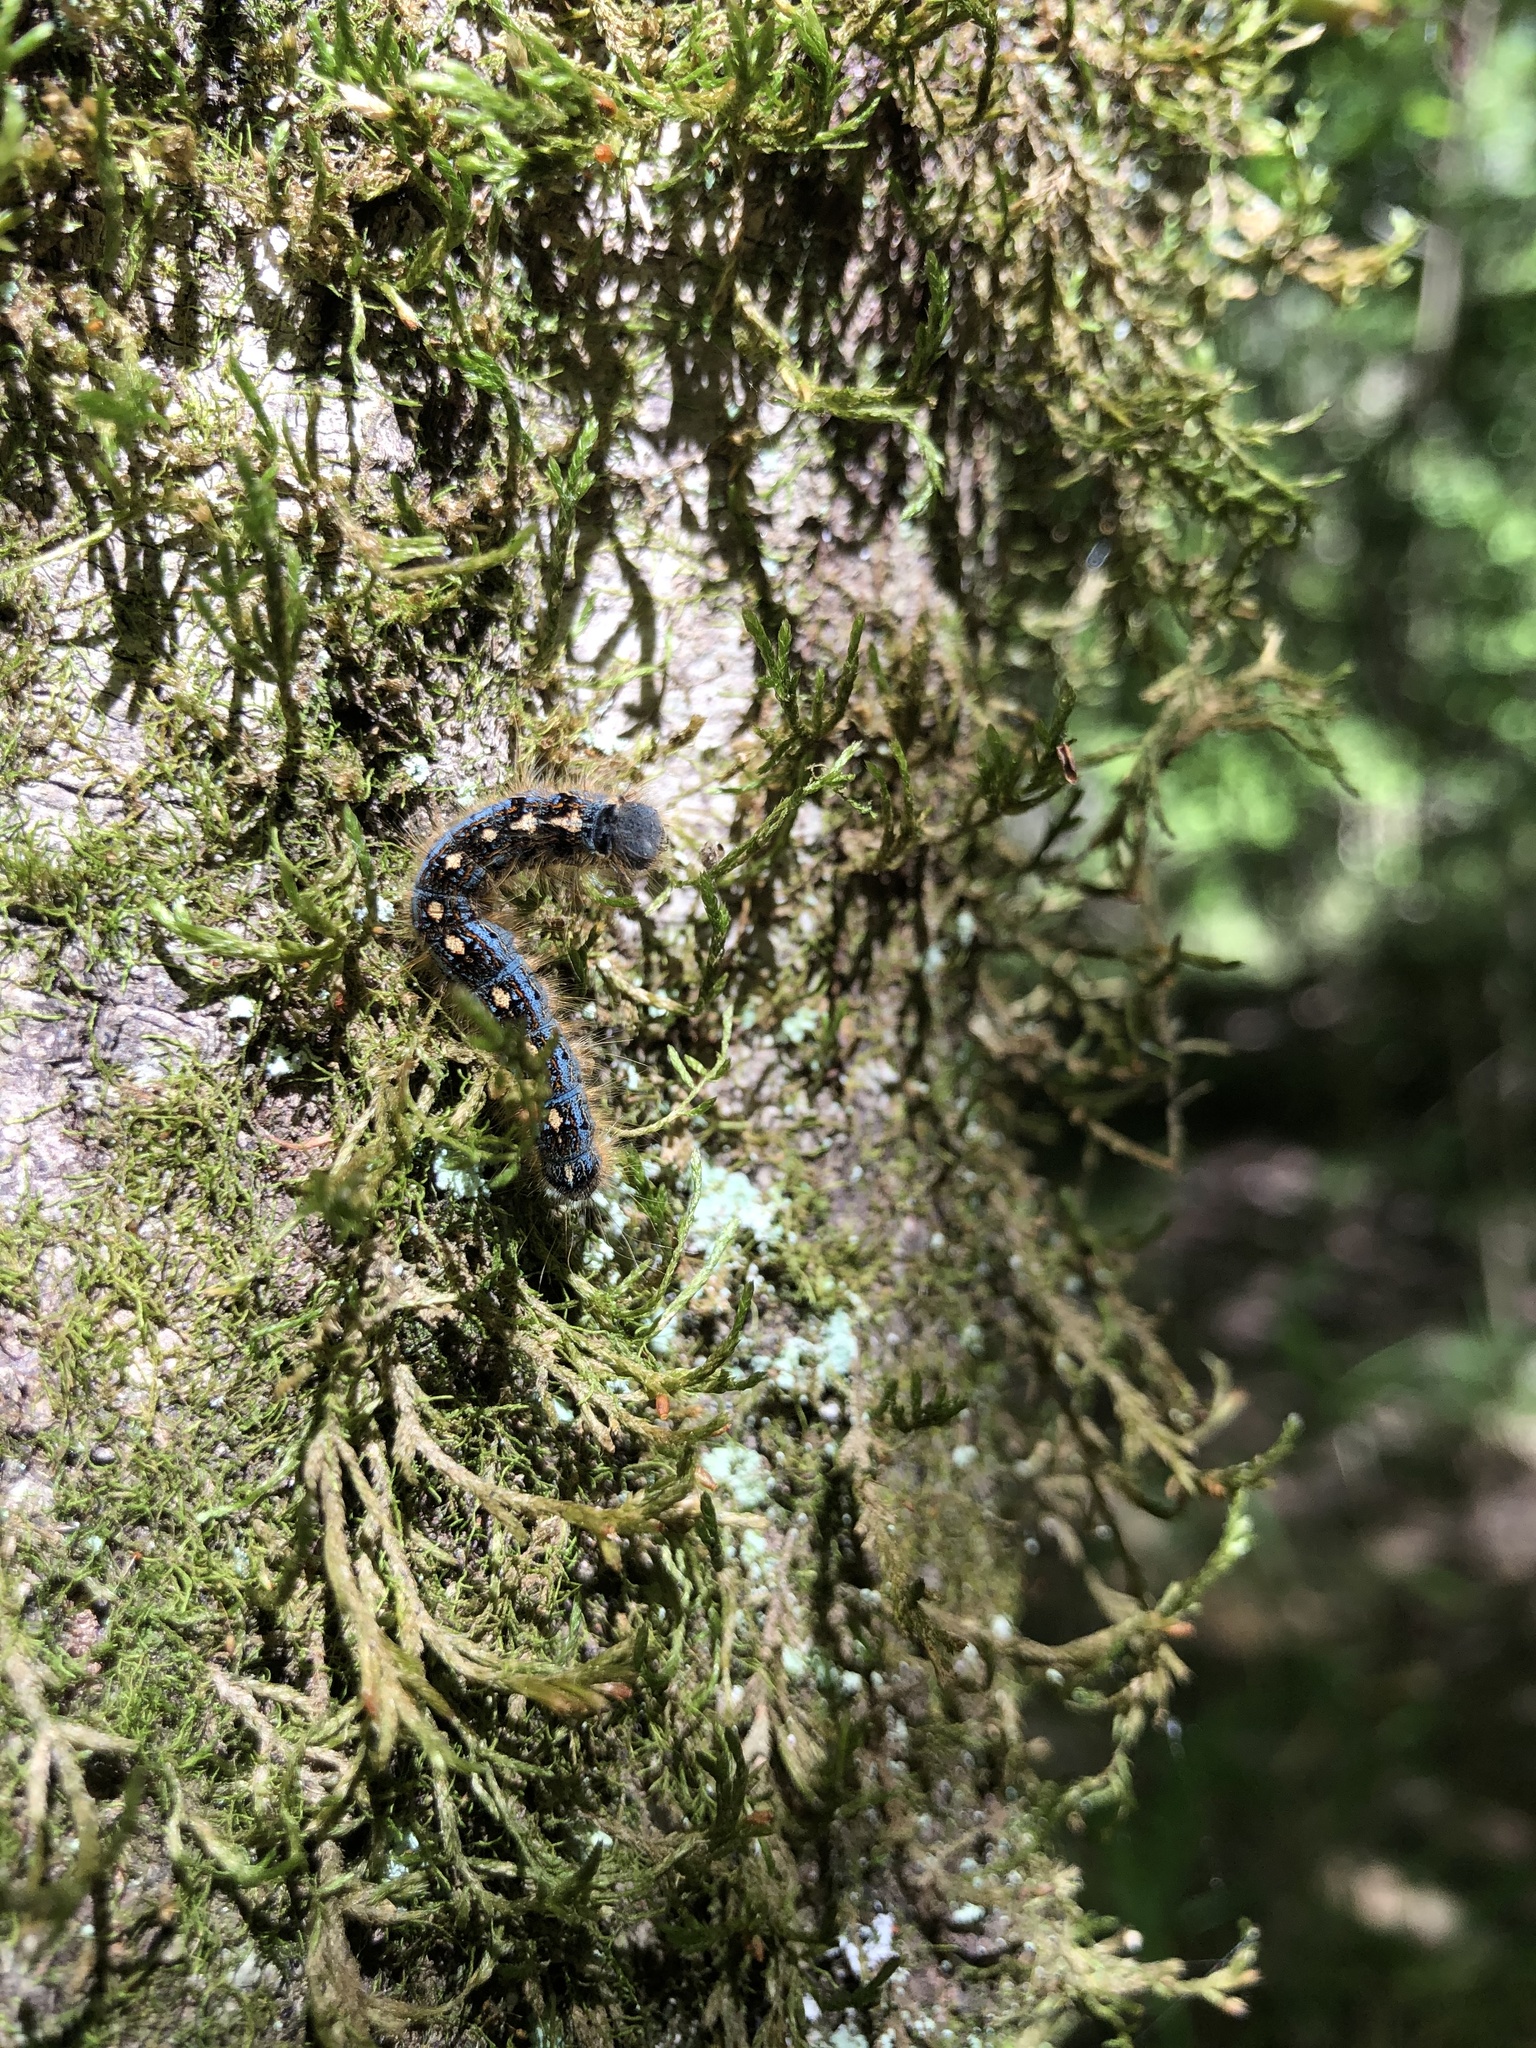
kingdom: Animalia
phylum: Arthropoda
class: Insecta
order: Lepidoptera
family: Lasiocampidae
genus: Malacosoma
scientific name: Malacosoma disstria
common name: Forest tent caterpillar
